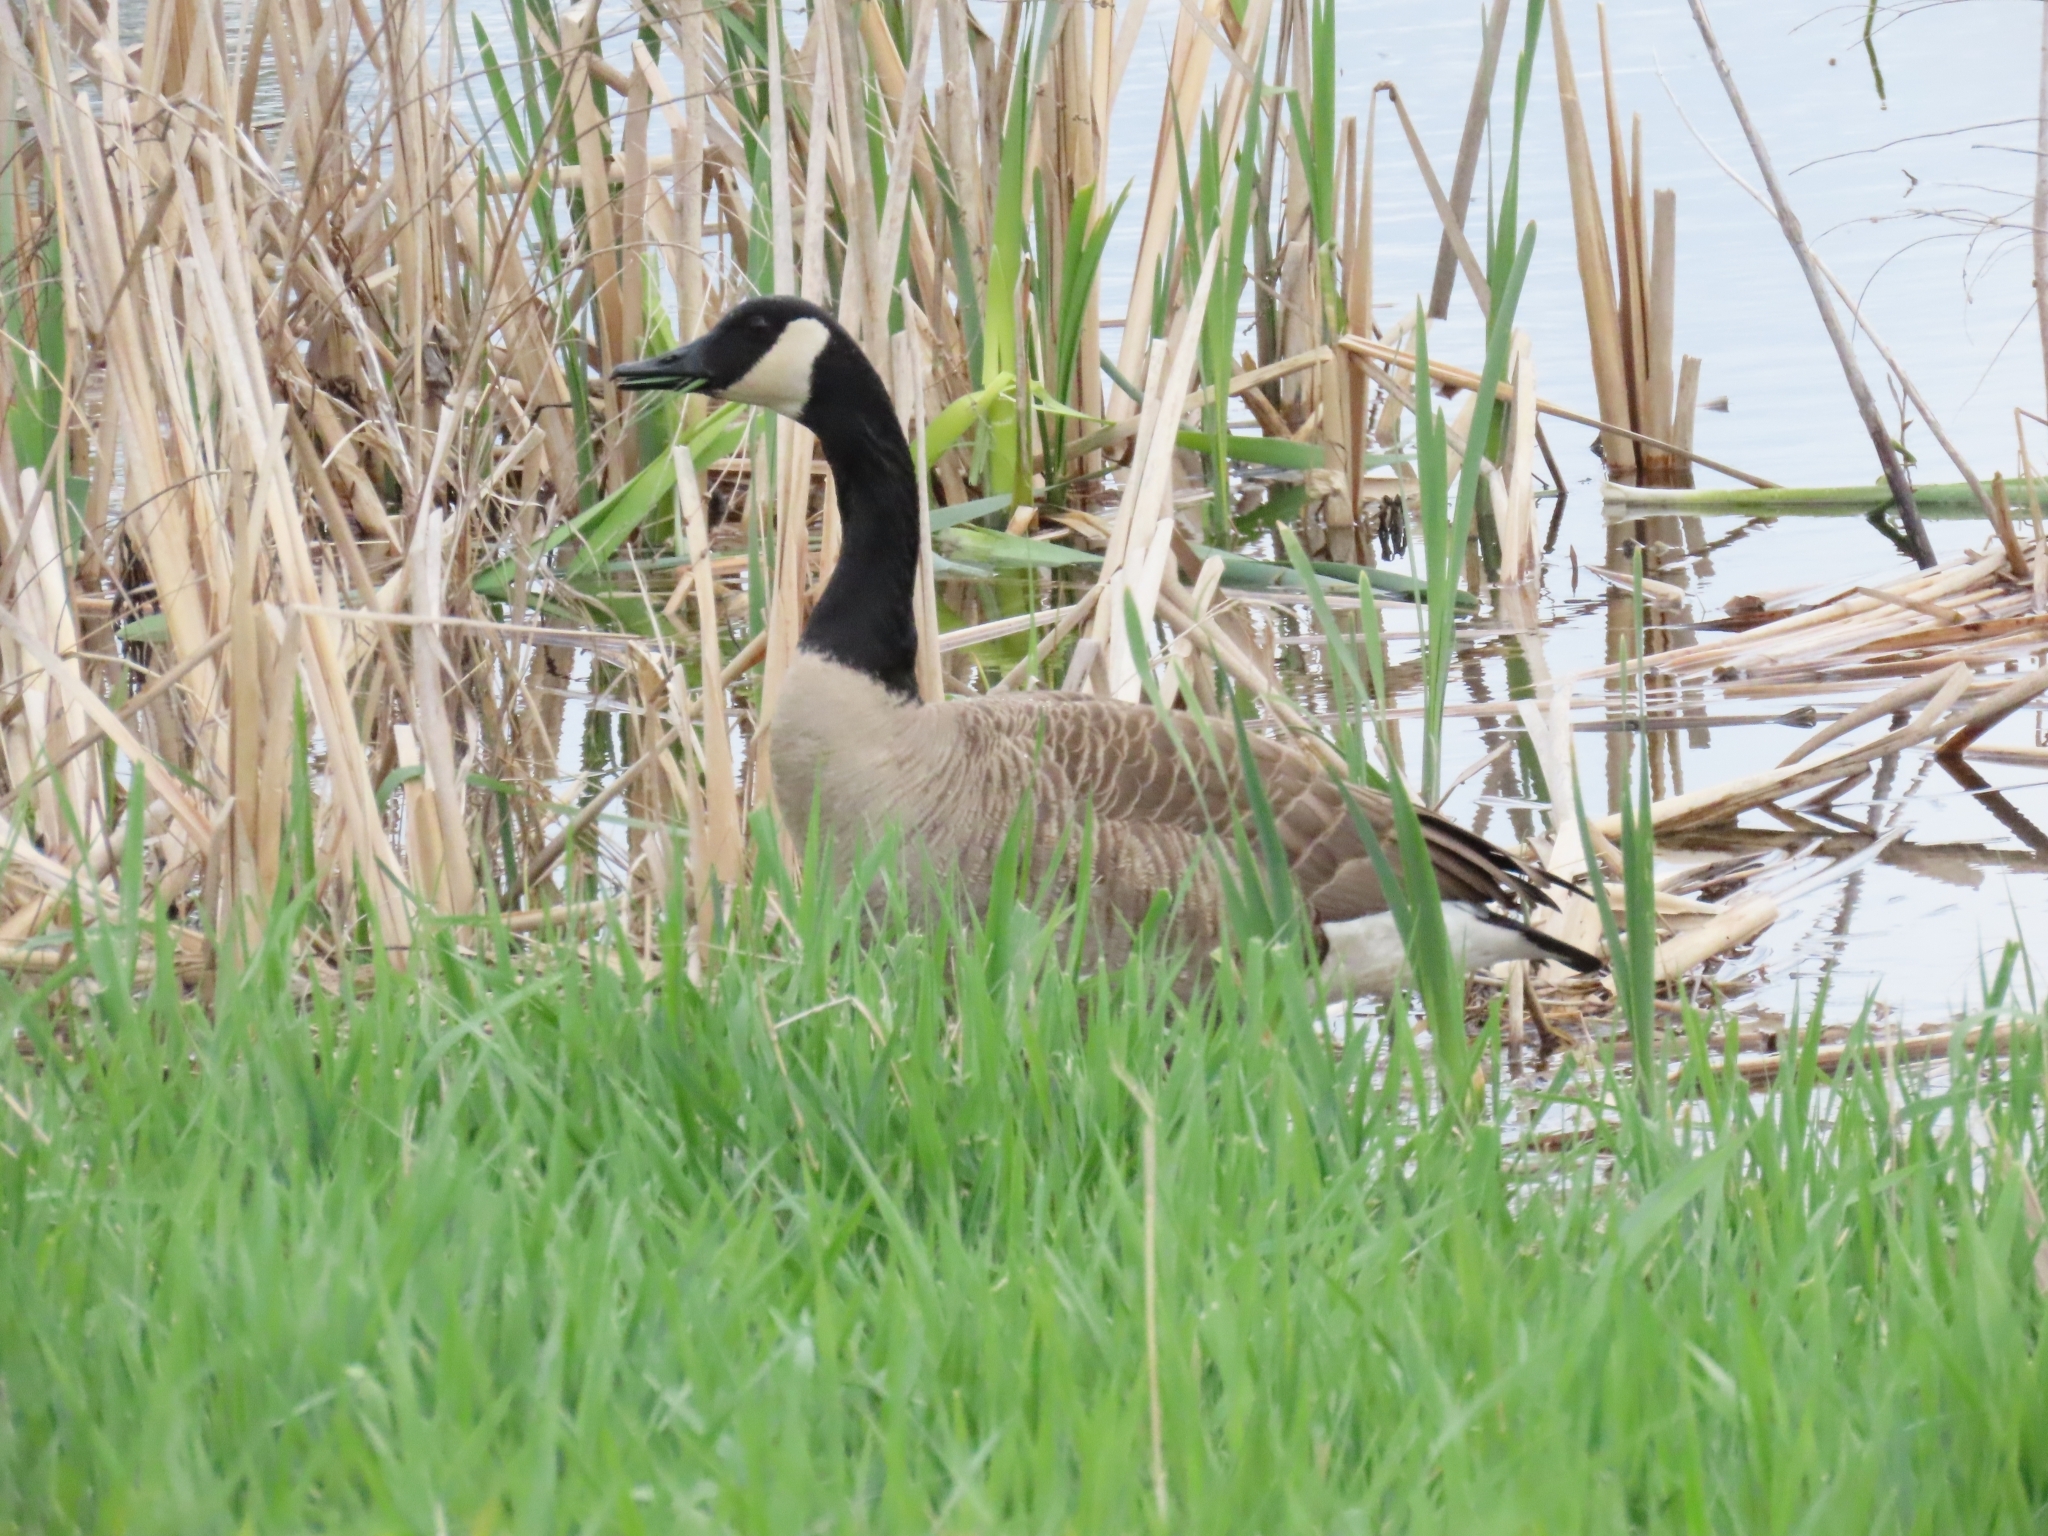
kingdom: Animalia
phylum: Chordata
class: Aves
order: Anseriformes
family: Anatidae
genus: Branta
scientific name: Branta canadensis
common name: Canada goose
